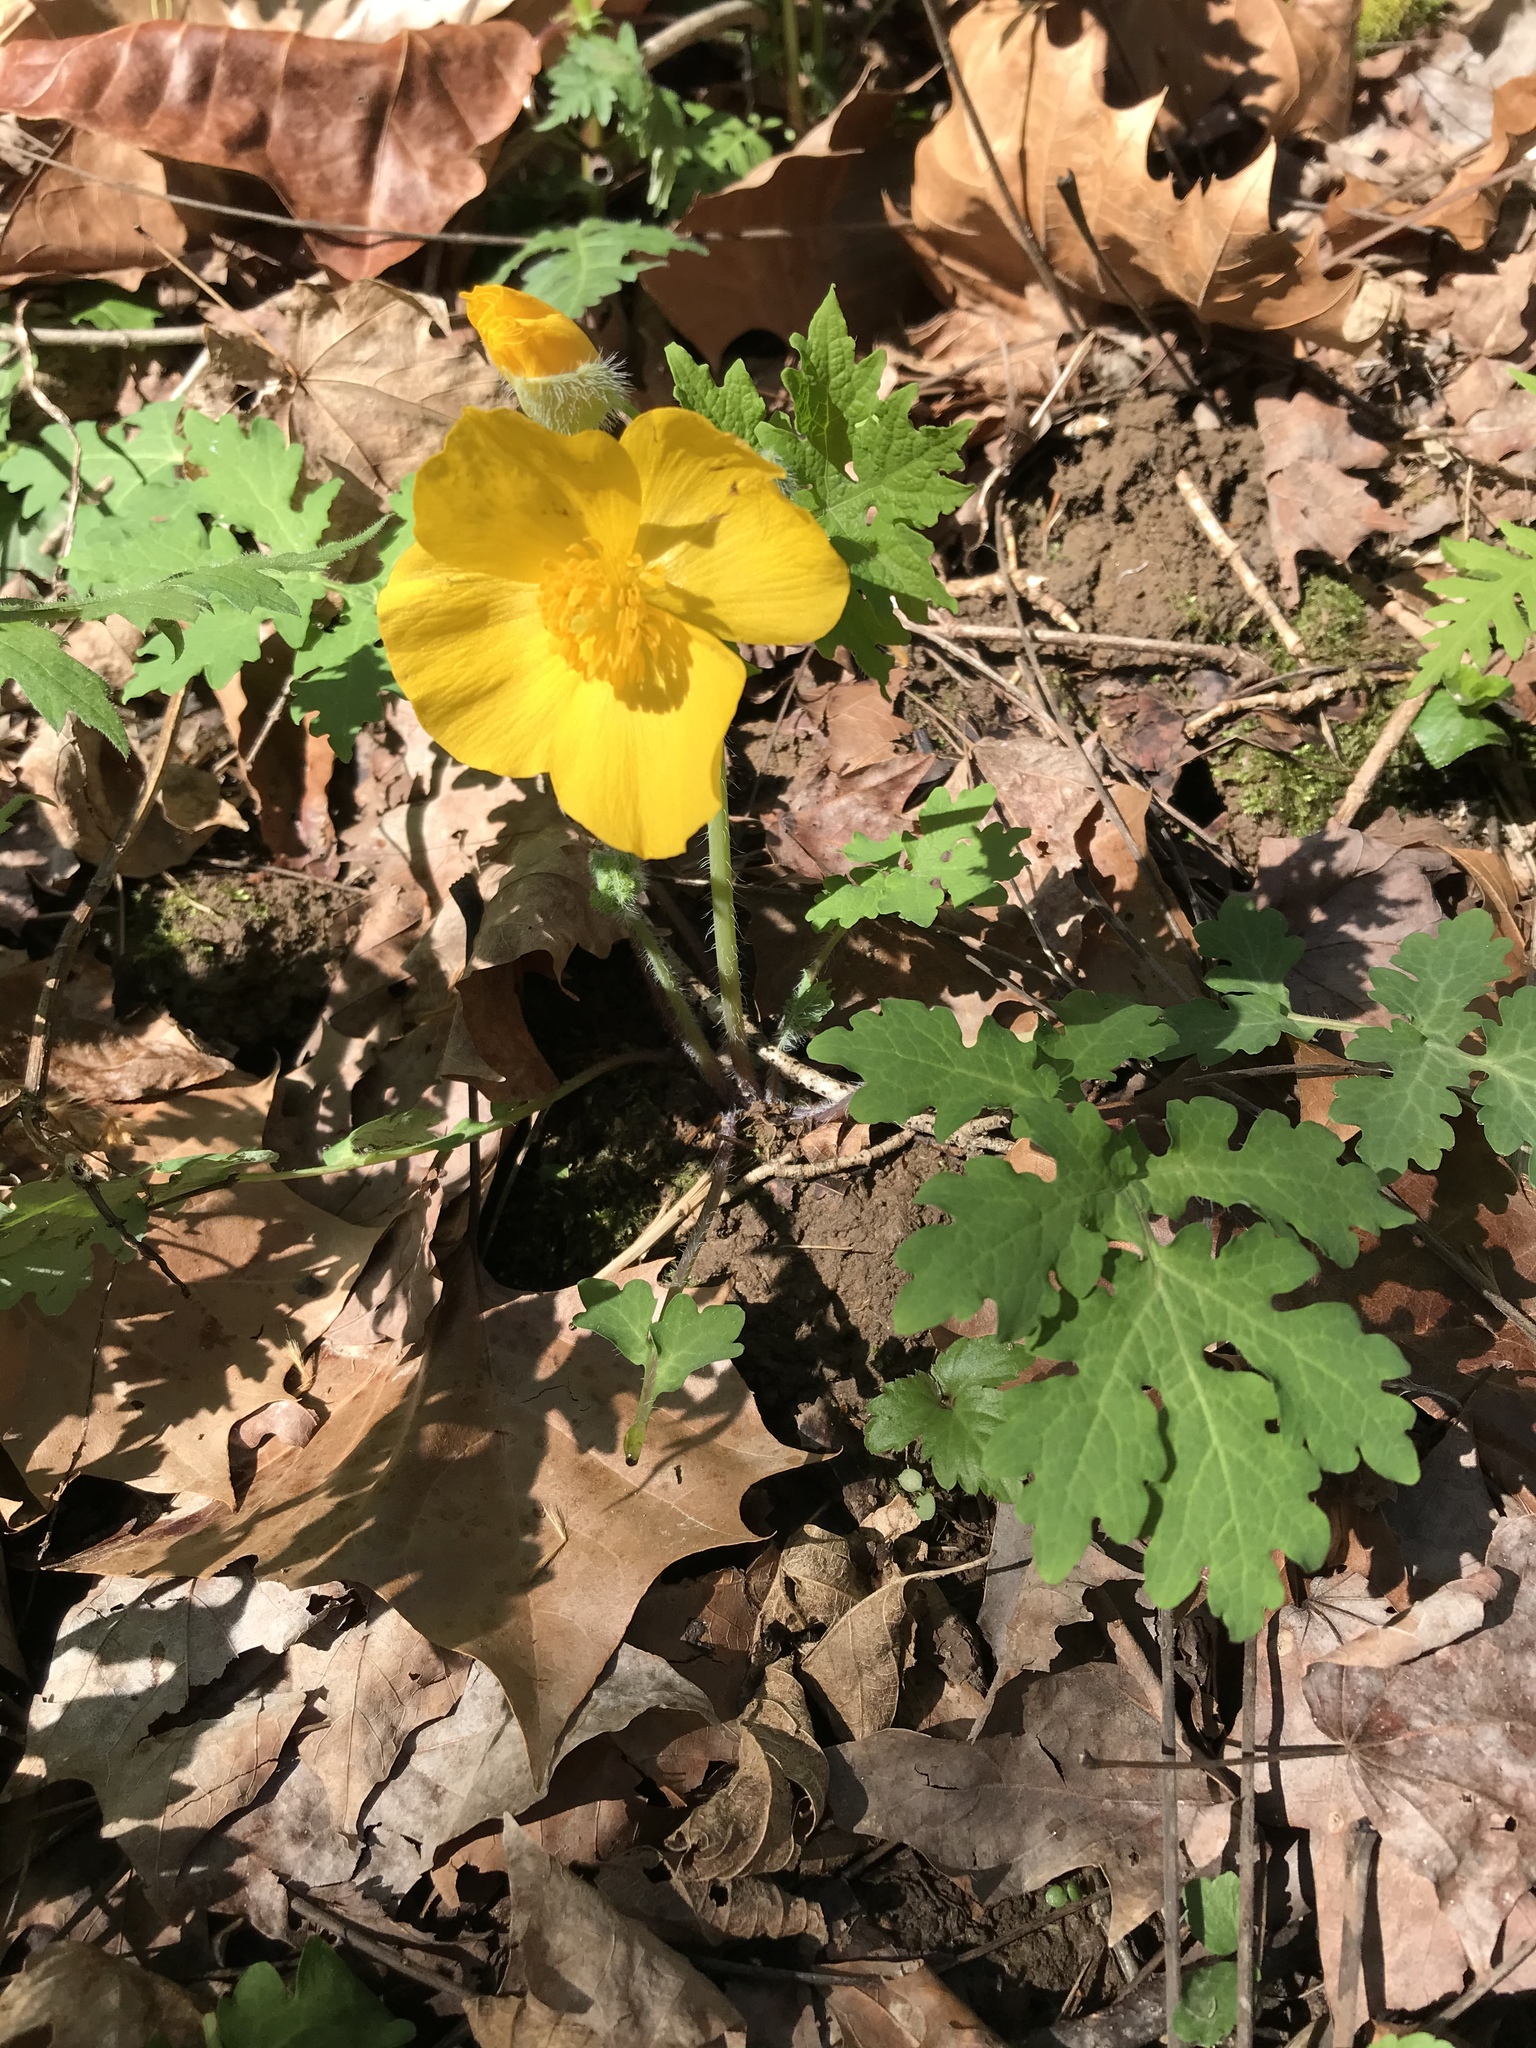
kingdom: Plantae
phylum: Tracheophyta
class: Magnoliopsida
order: Ranunculales
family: Papaveraceae
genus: Stylophorum
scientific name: Stylophorum diphyllum
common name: Celandine poppy
